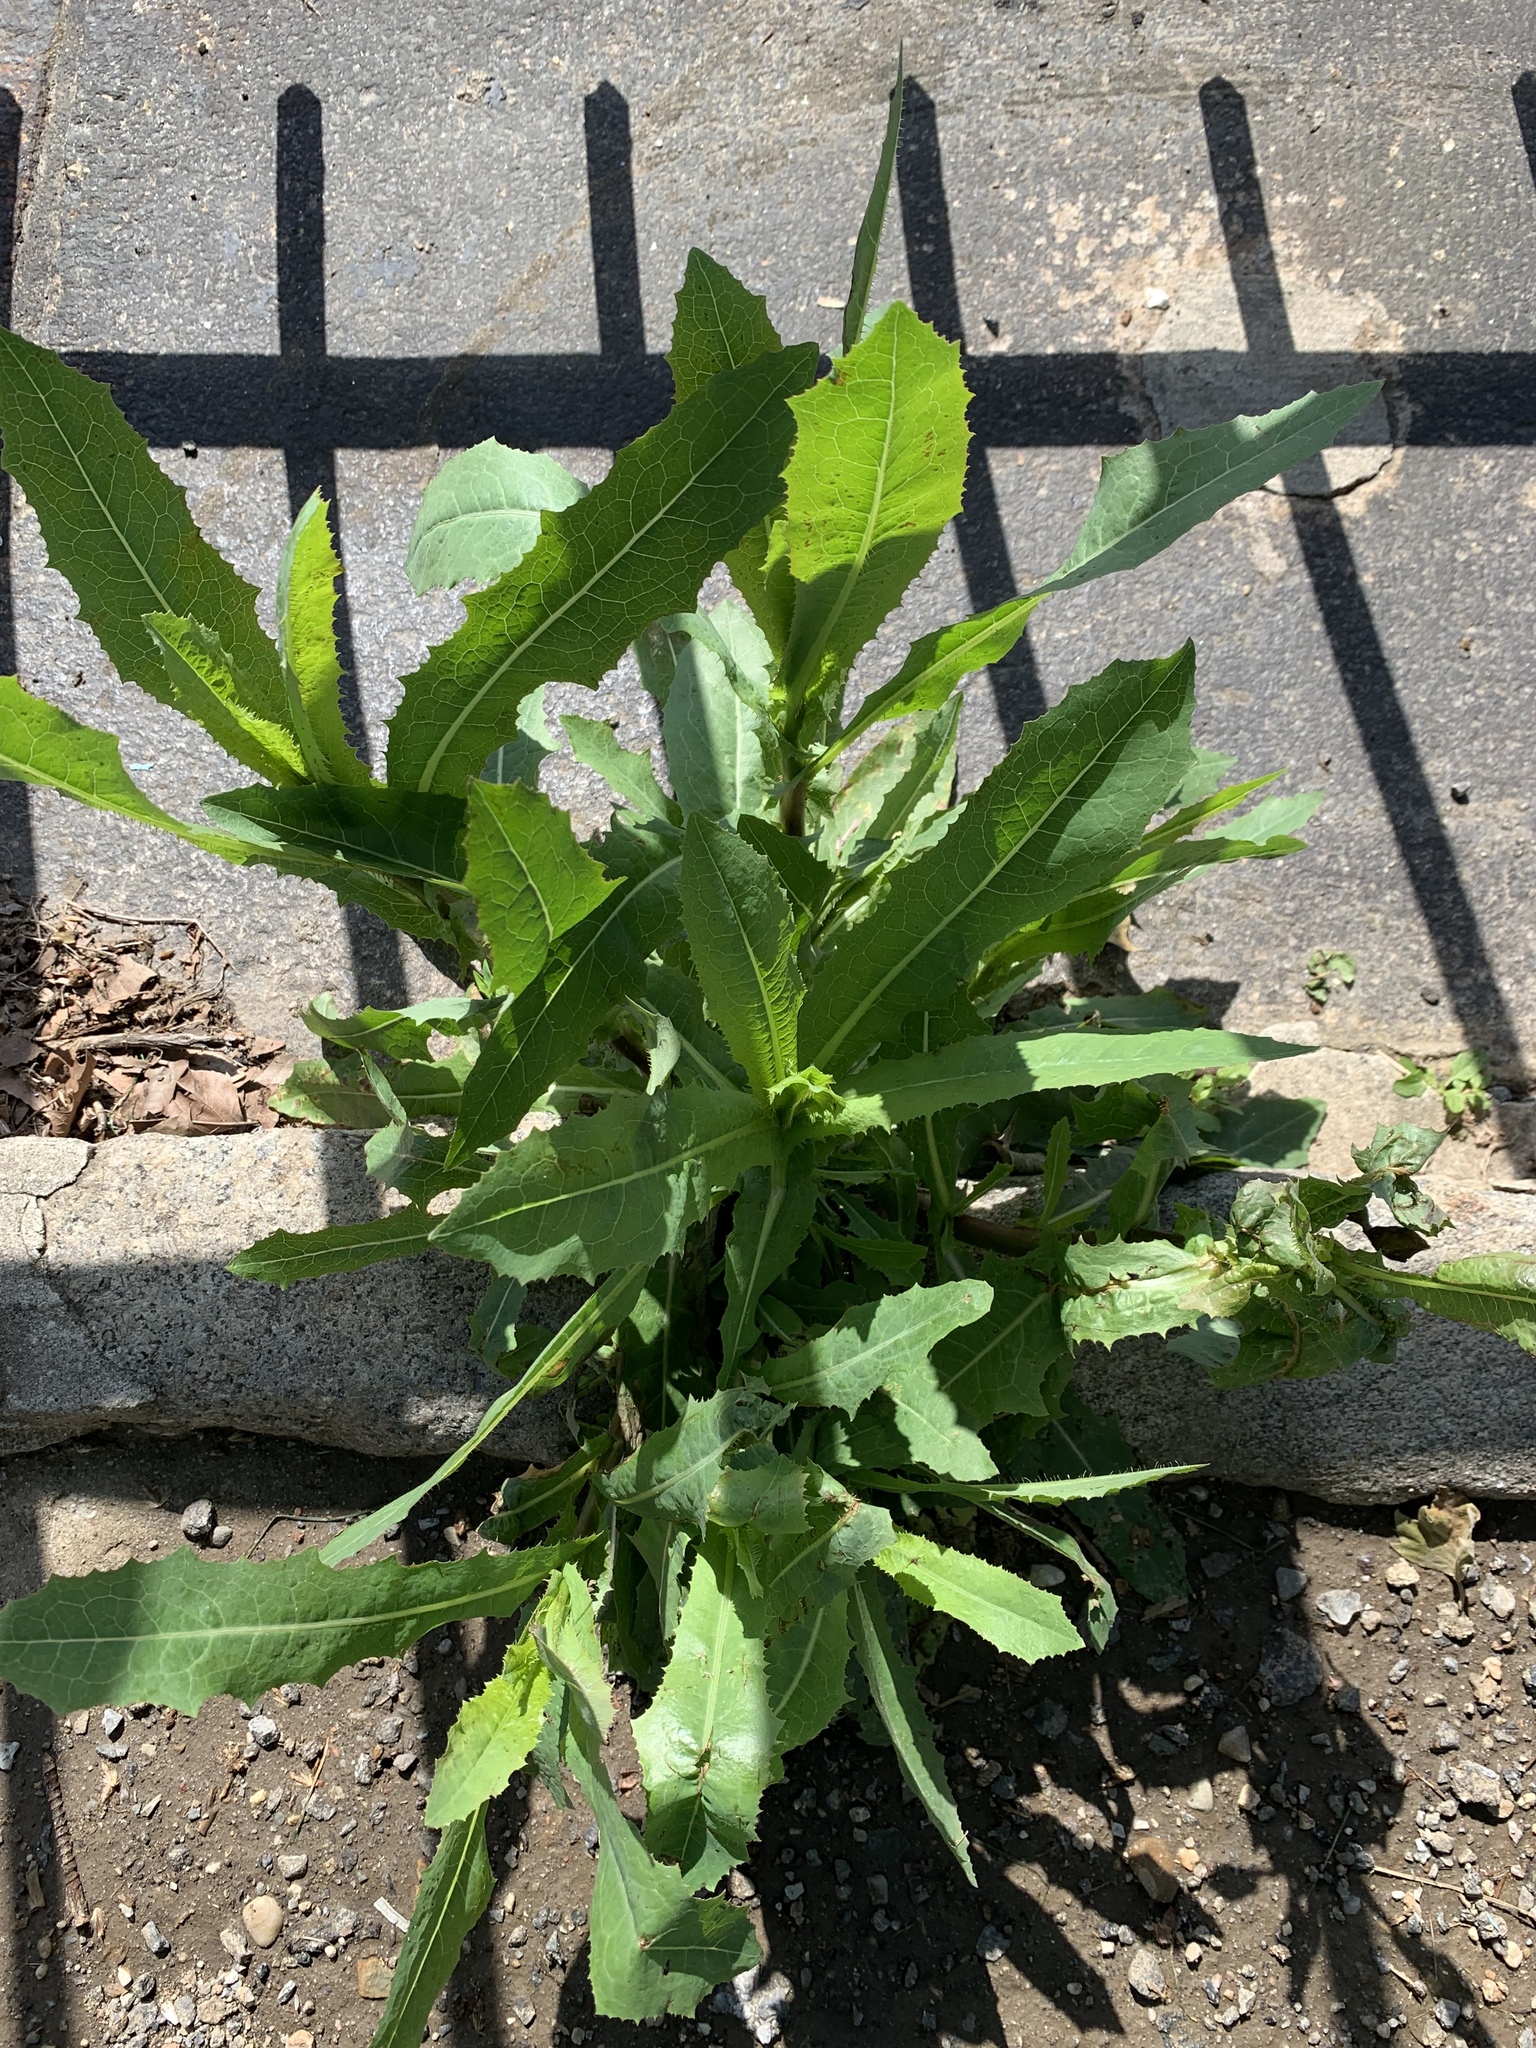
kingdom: Plantae
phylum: Tracheophyta
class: Magnoliopsida
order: Asterales
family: Asteraceae
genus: Lactuca
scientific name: Lactuca serriola
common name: Prickly lettuce
